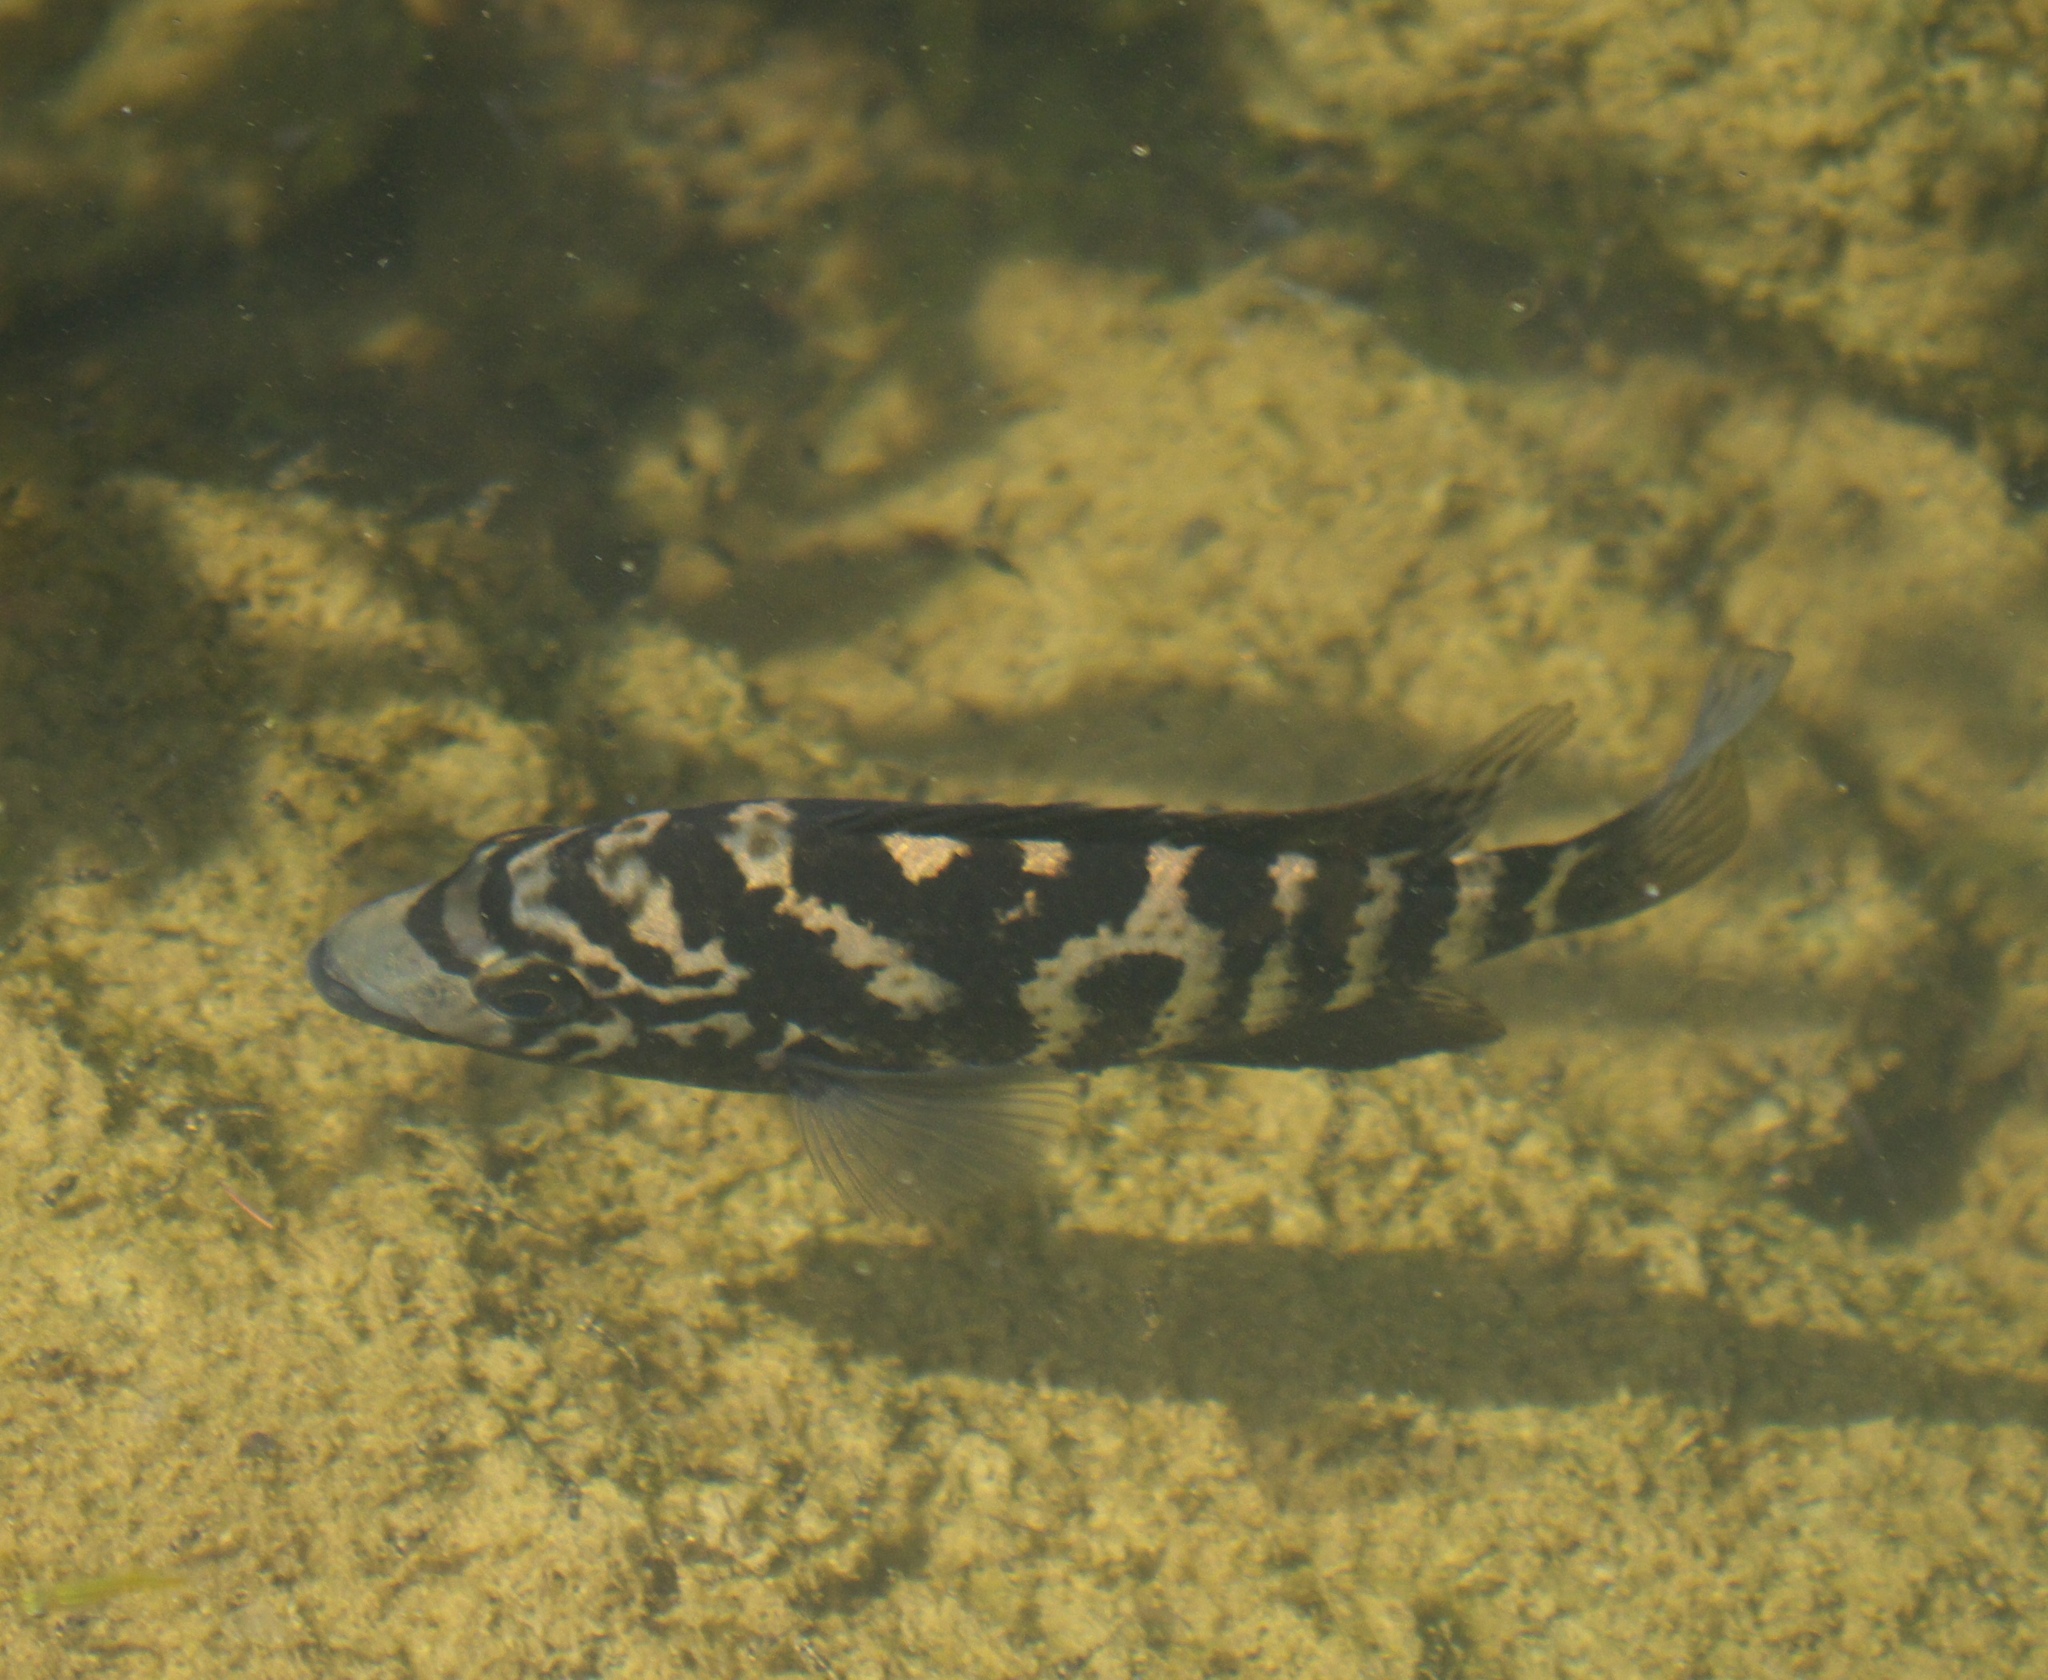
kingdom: Animalia
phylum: Chordata
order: Perciformes
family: Cichlidae
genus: Nandopsis
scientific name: Nandopsis tetracanthus
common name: Biajaca
